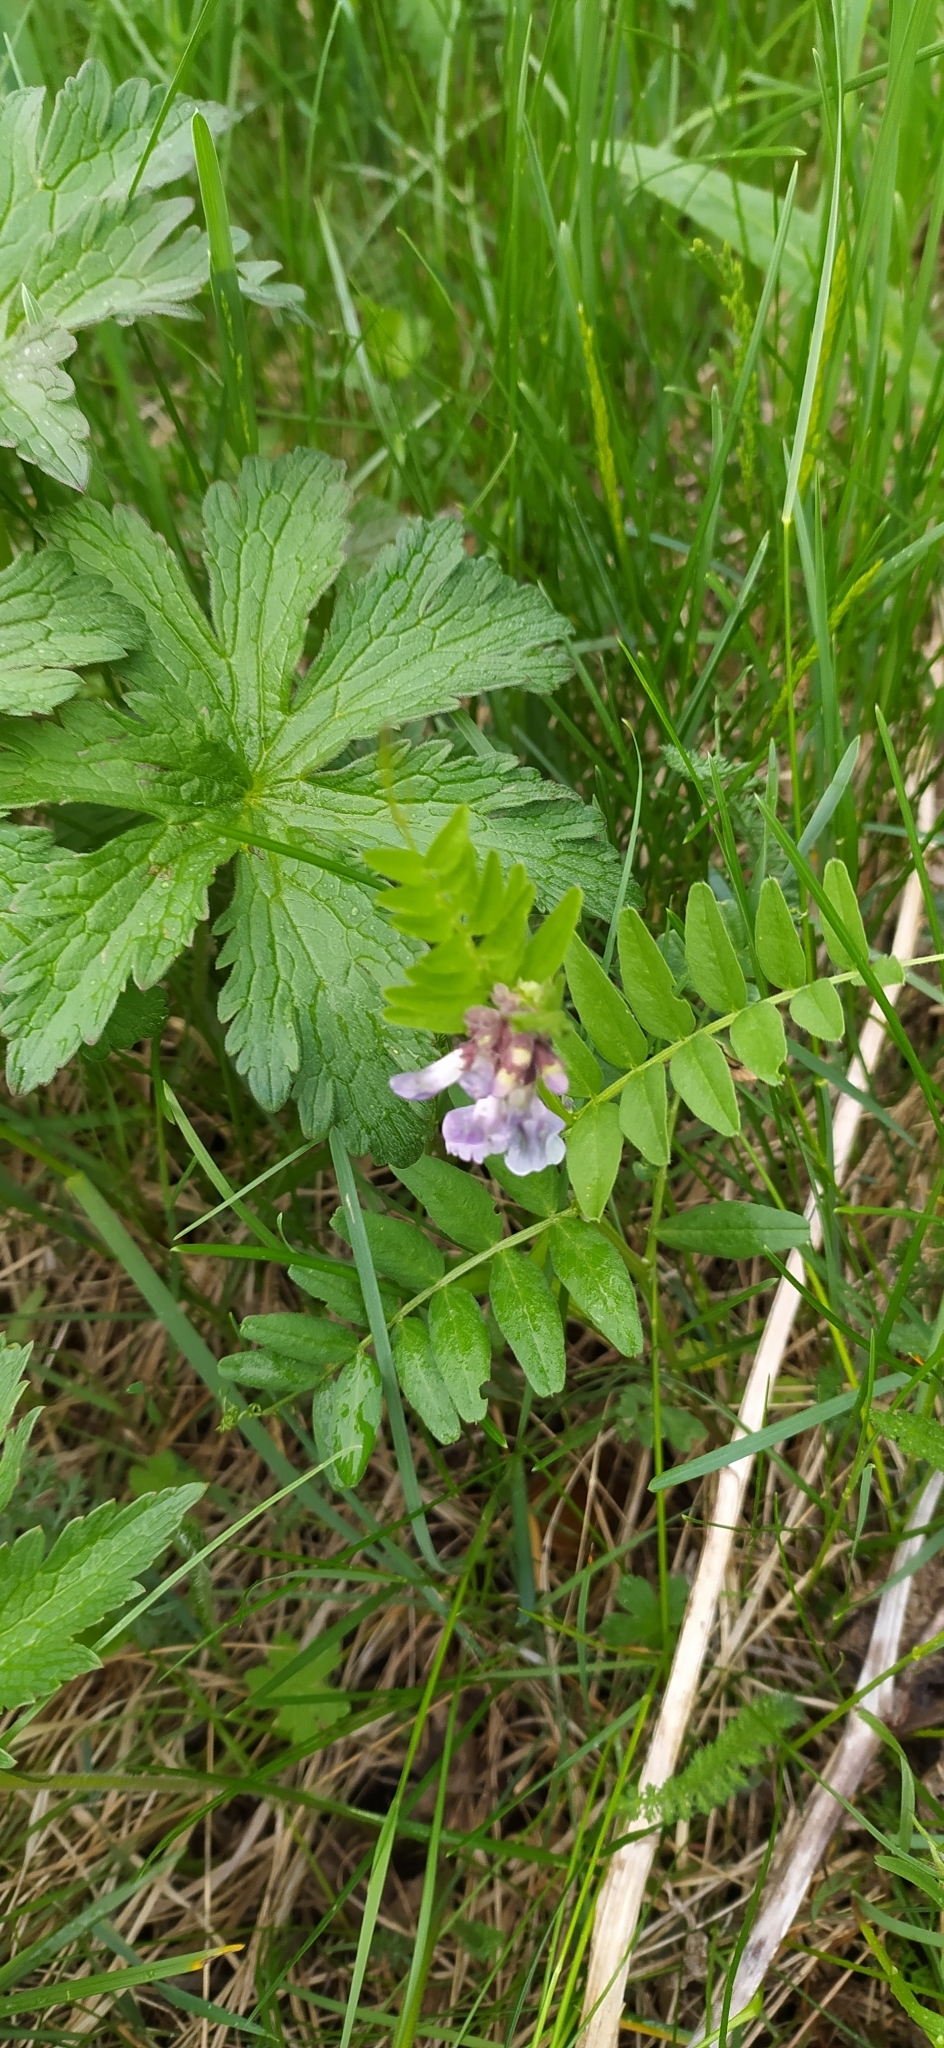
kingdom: Plantae
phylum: Tracheophyta
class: Magnoliopsida
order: Fabales
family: Fabaceae
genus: Vicia
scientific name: Vicia sepium
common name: Bush vetch
